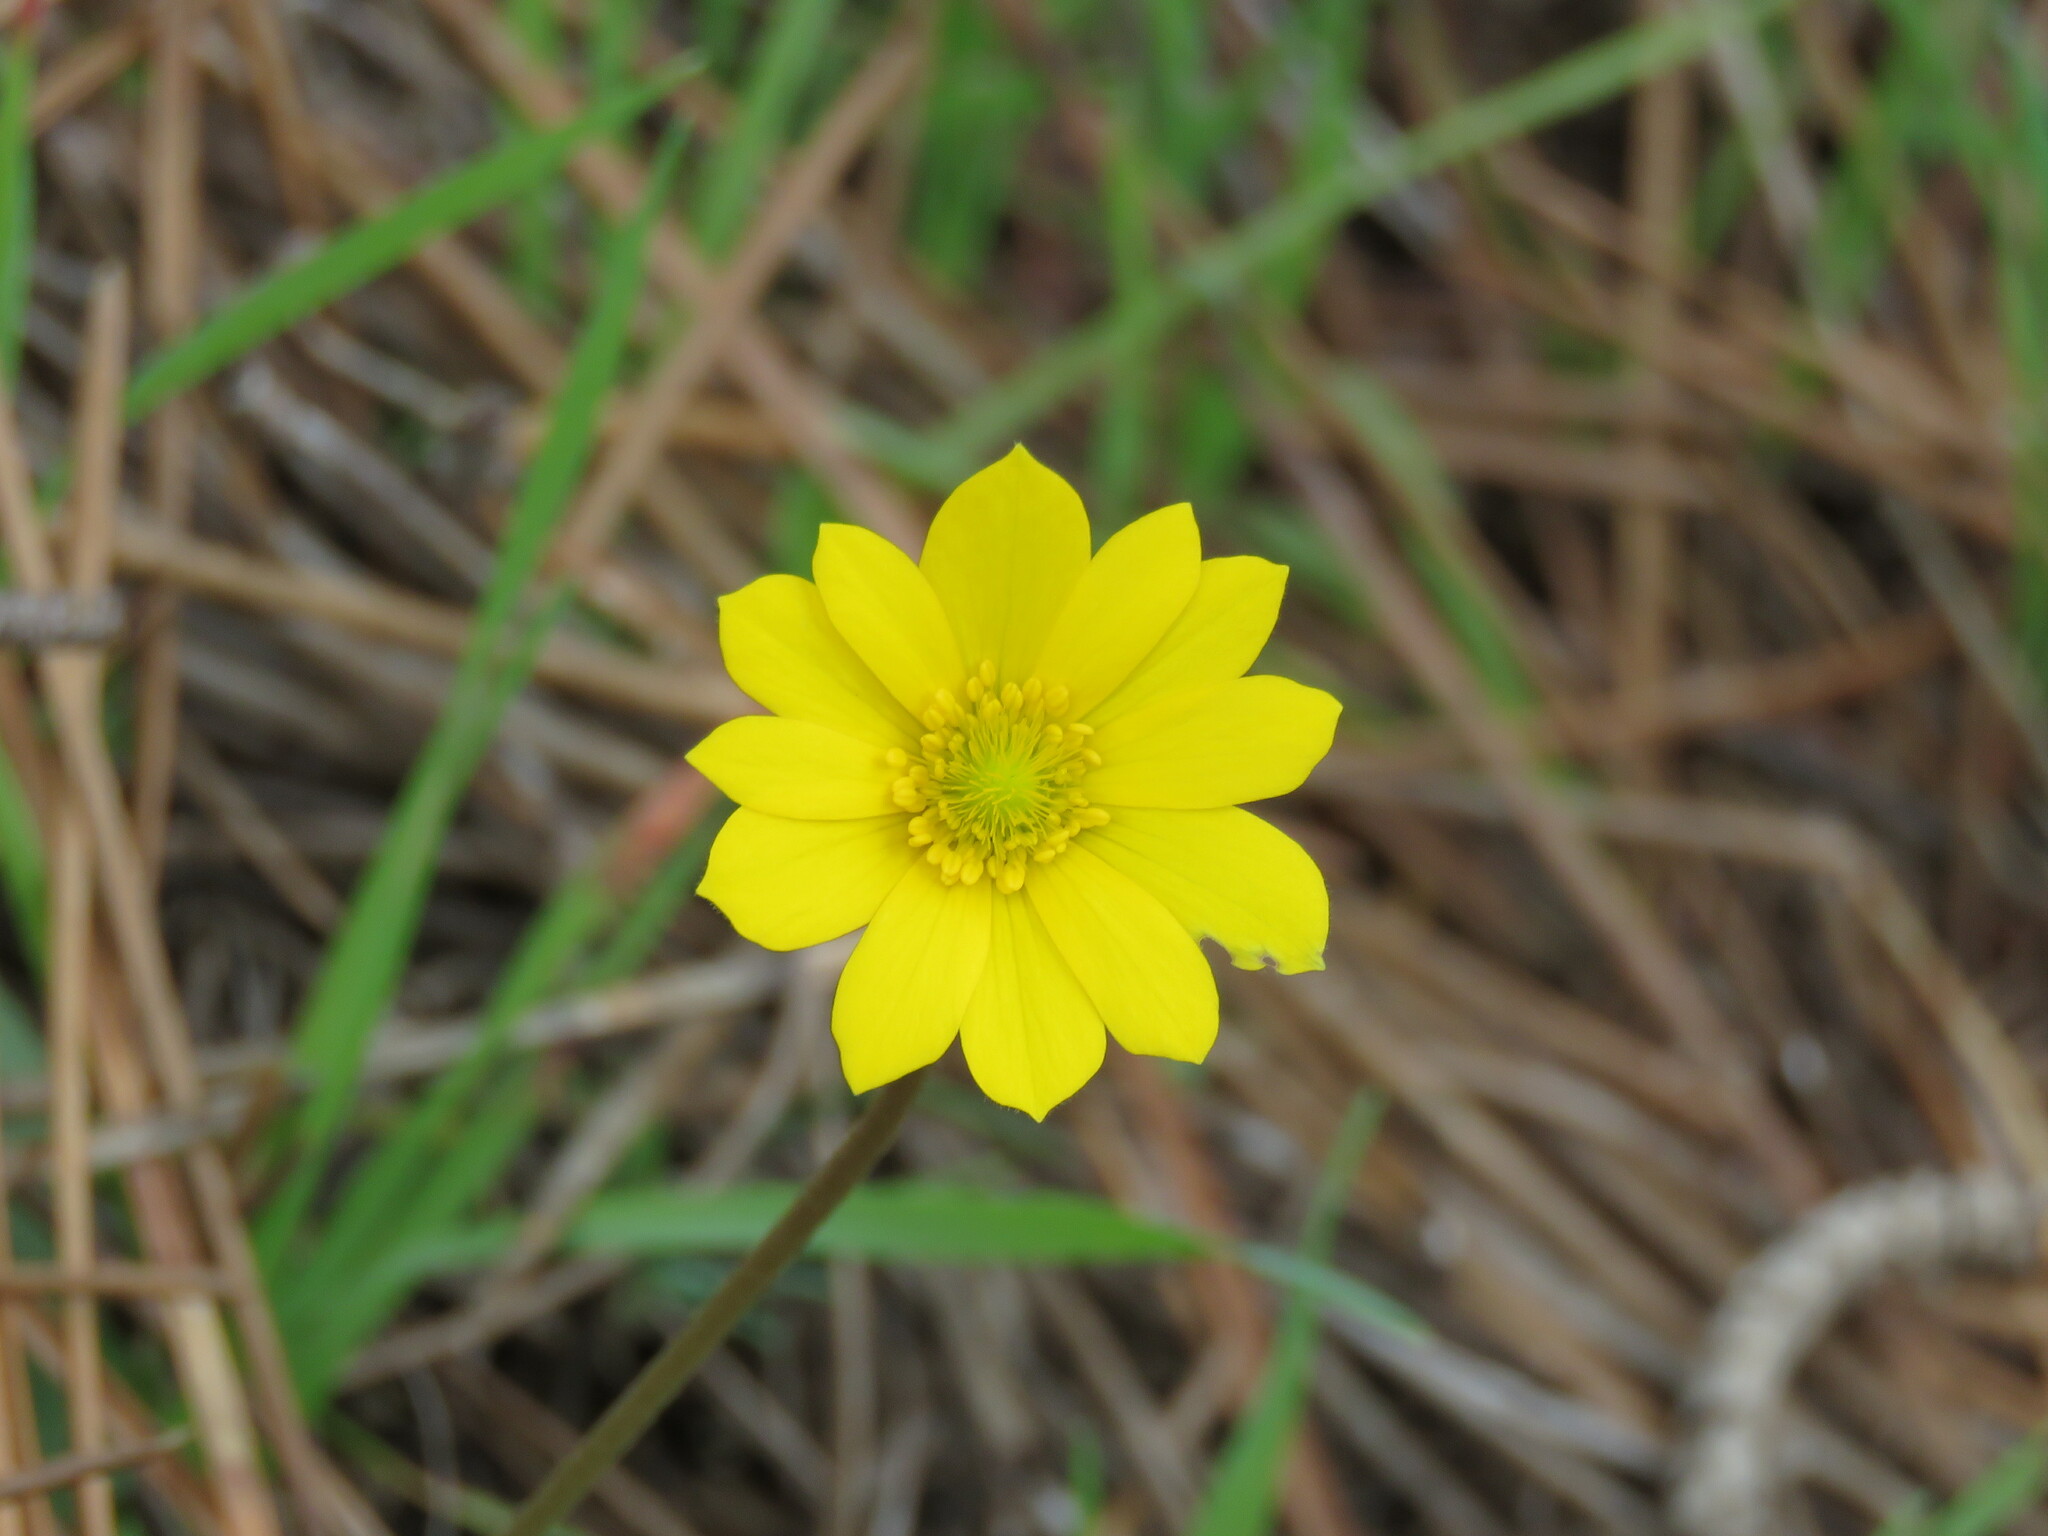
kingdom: Plantae
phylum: Tracheophyta
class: Magnoliopsida
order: Ranunculales
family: Ranunculaceae
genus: Anemone
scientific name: Anemone palmata
